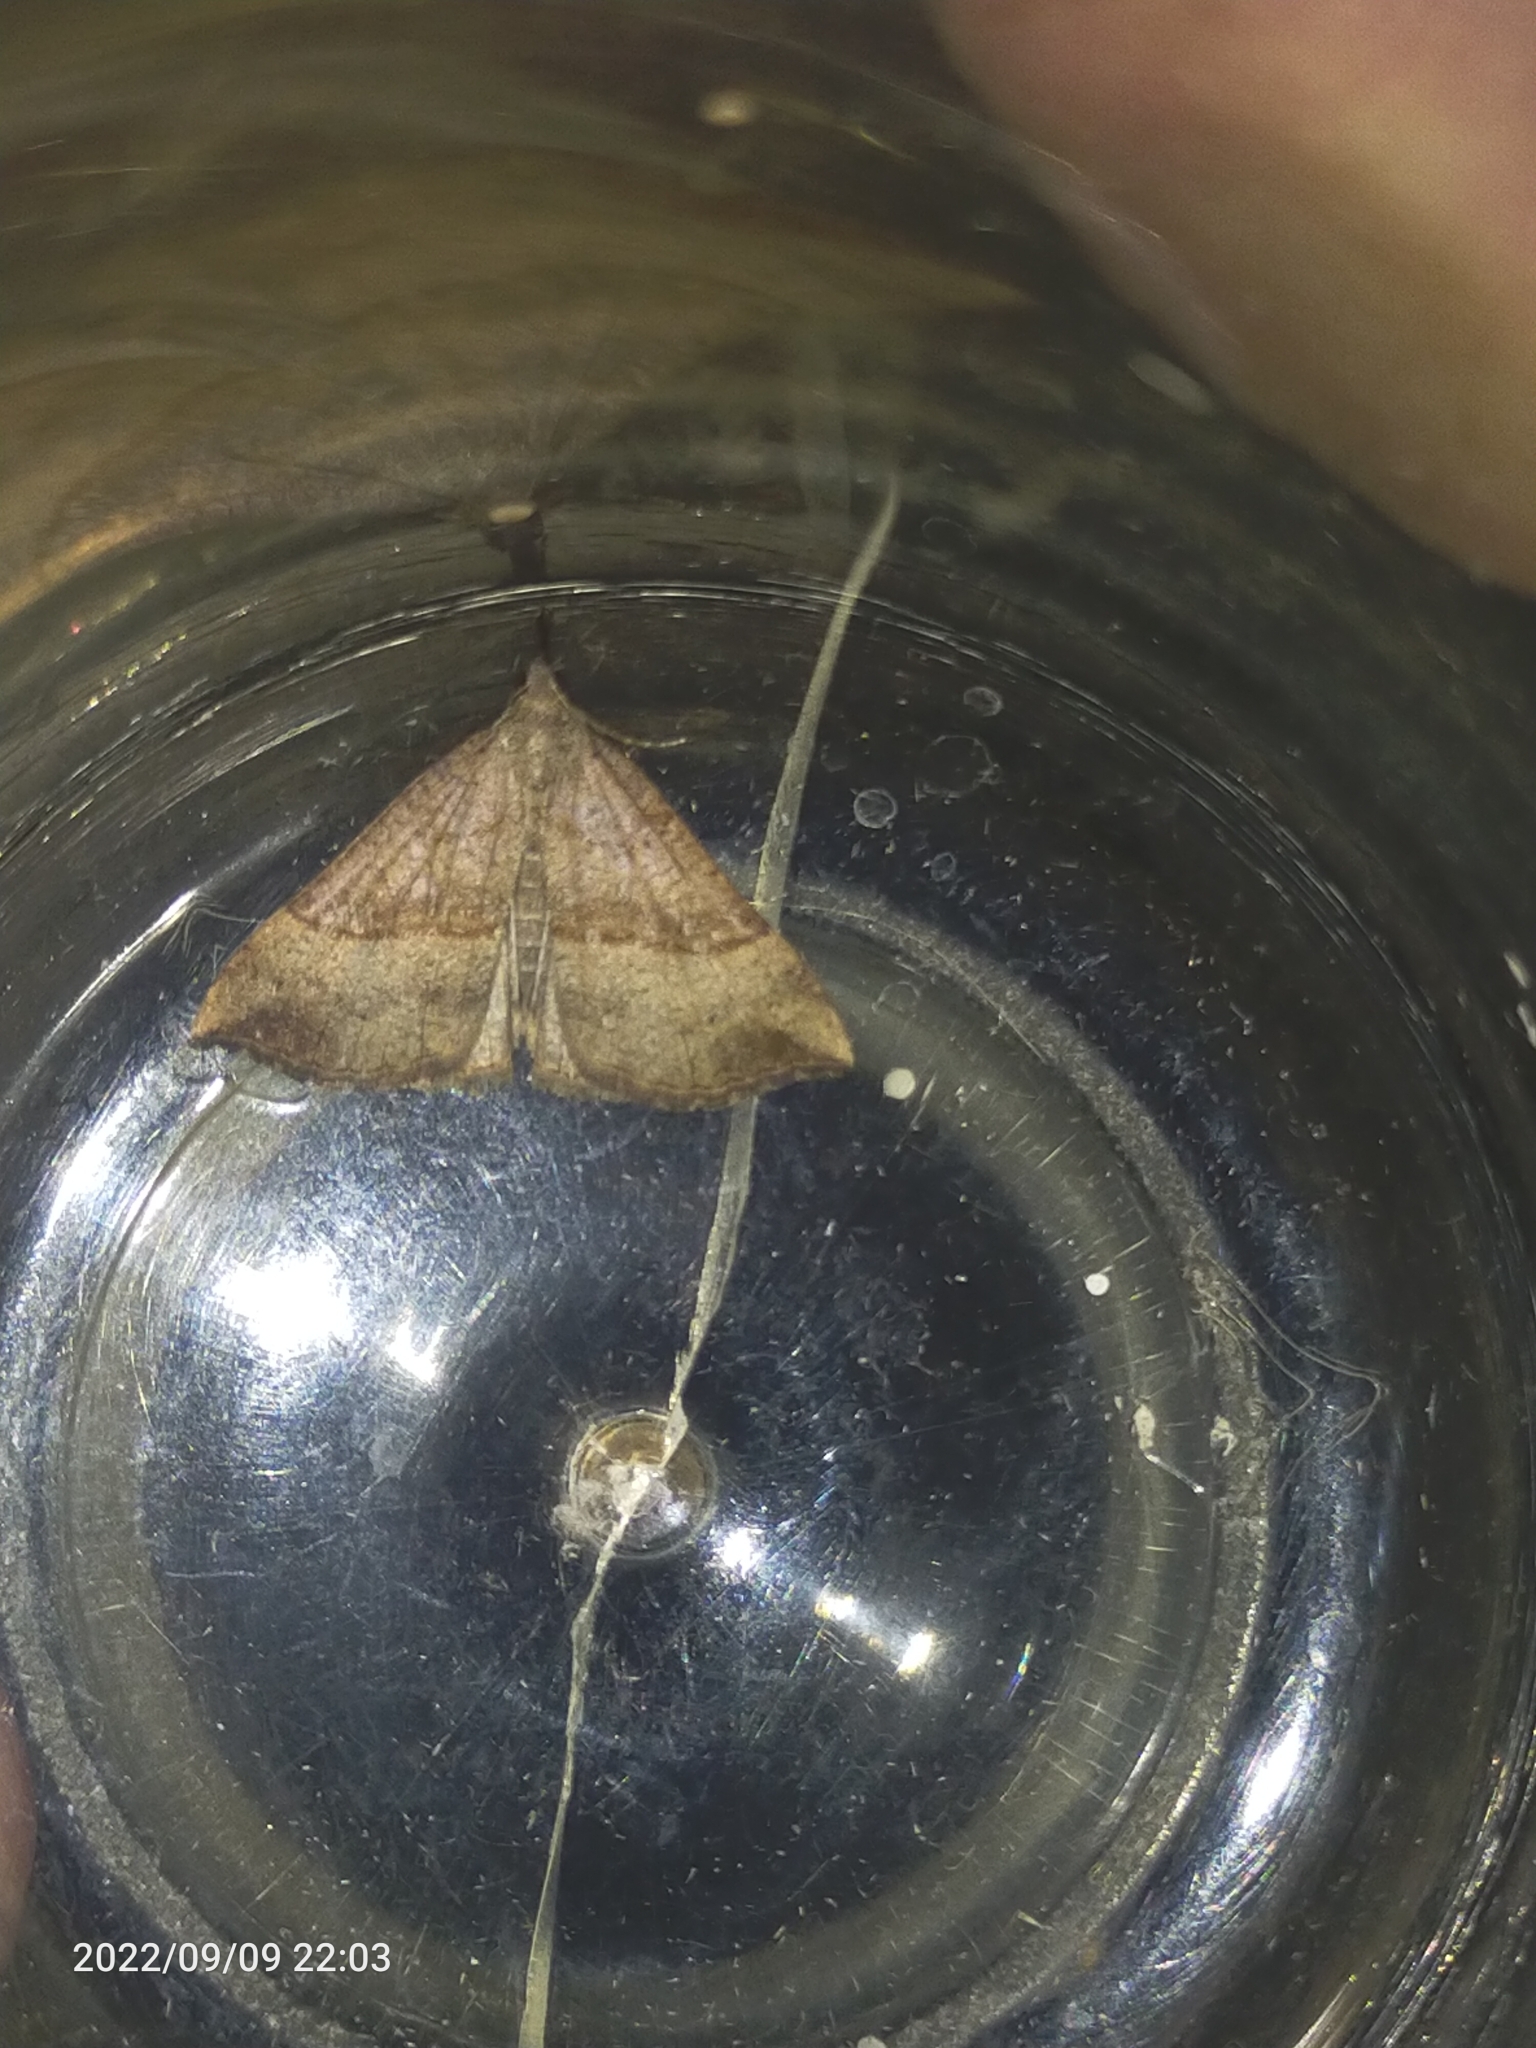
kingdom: Animalia
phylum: Arthropoda
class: Insecta
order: Lepidoptera
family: Erebidae
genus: Hypena
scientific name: Hypena proboscidalis
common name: Snout
